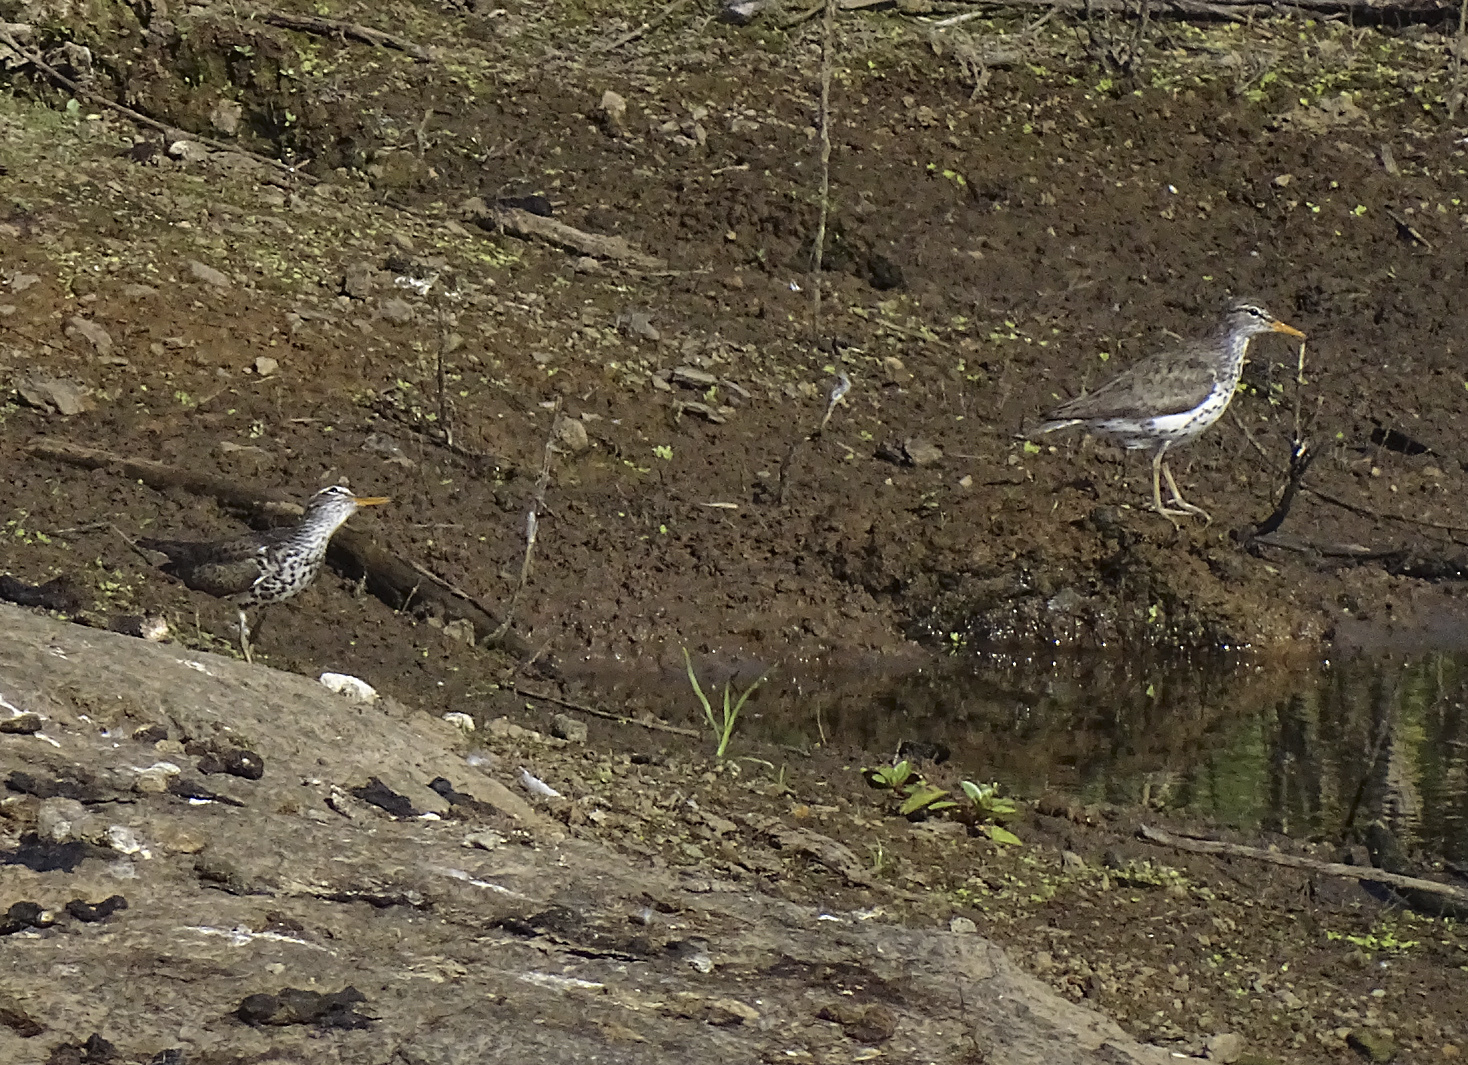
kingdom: Animalia
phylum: Chordata
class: Aves
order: Charadriiformes
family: Scolopacidae
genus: Actitis
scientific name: Actitis macularius
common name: Spotted sandpiper
